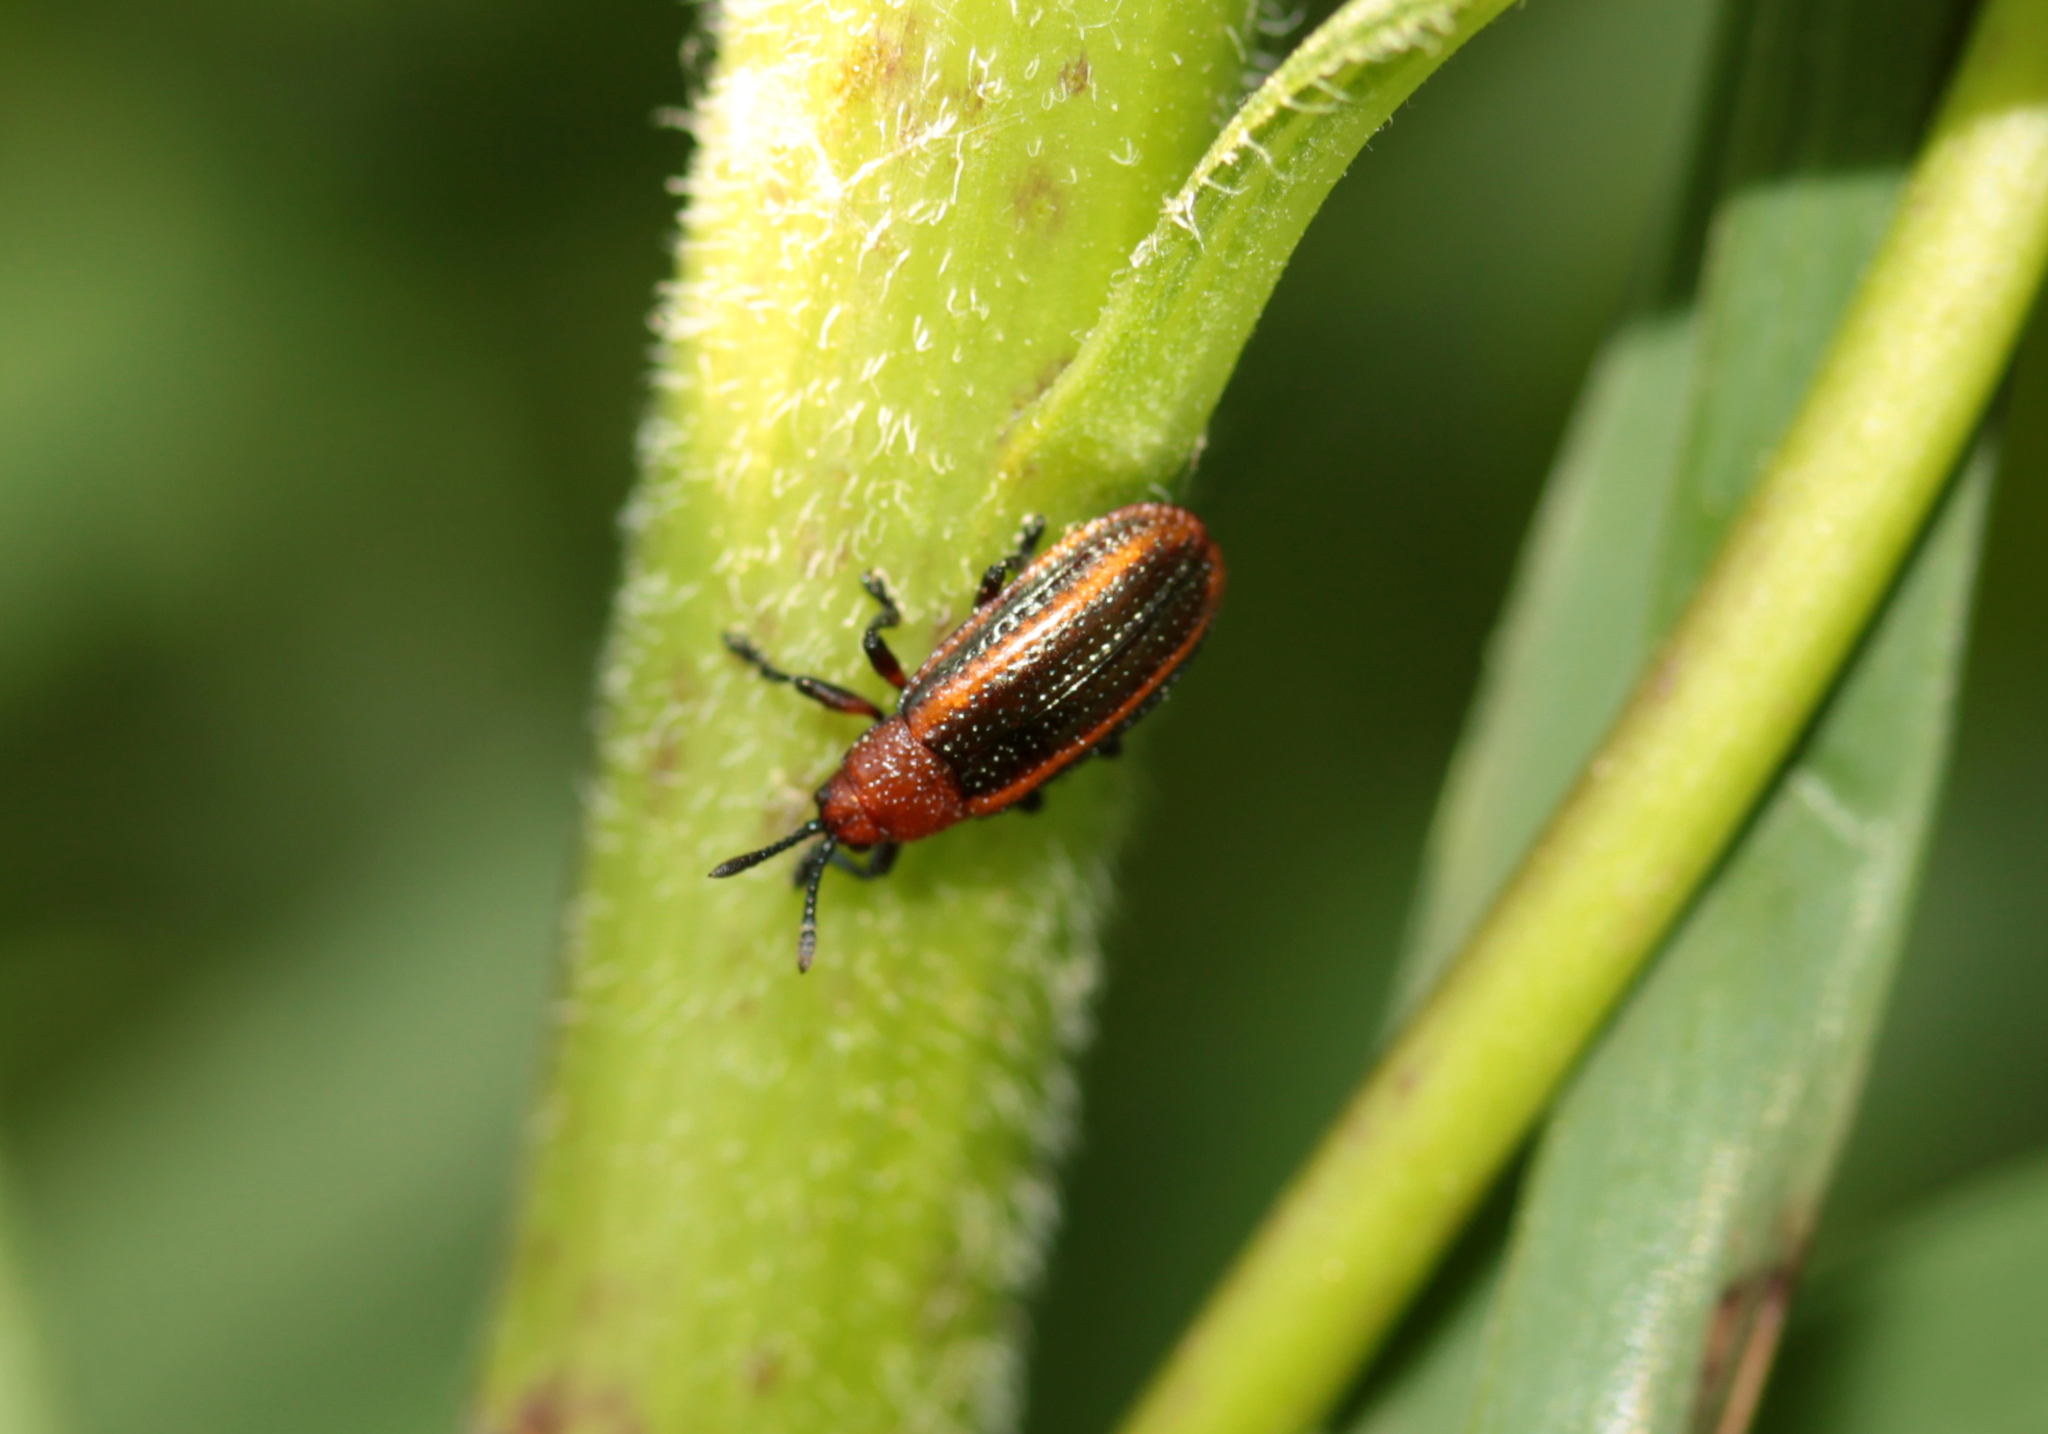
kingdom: Animalia
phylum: Arthropoda
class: Insecta
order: Coleoptera
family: Chrysomelidae
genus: Microrhopala
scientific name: Microrhopala vittata
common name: Goldenrod leaf miner beetle
